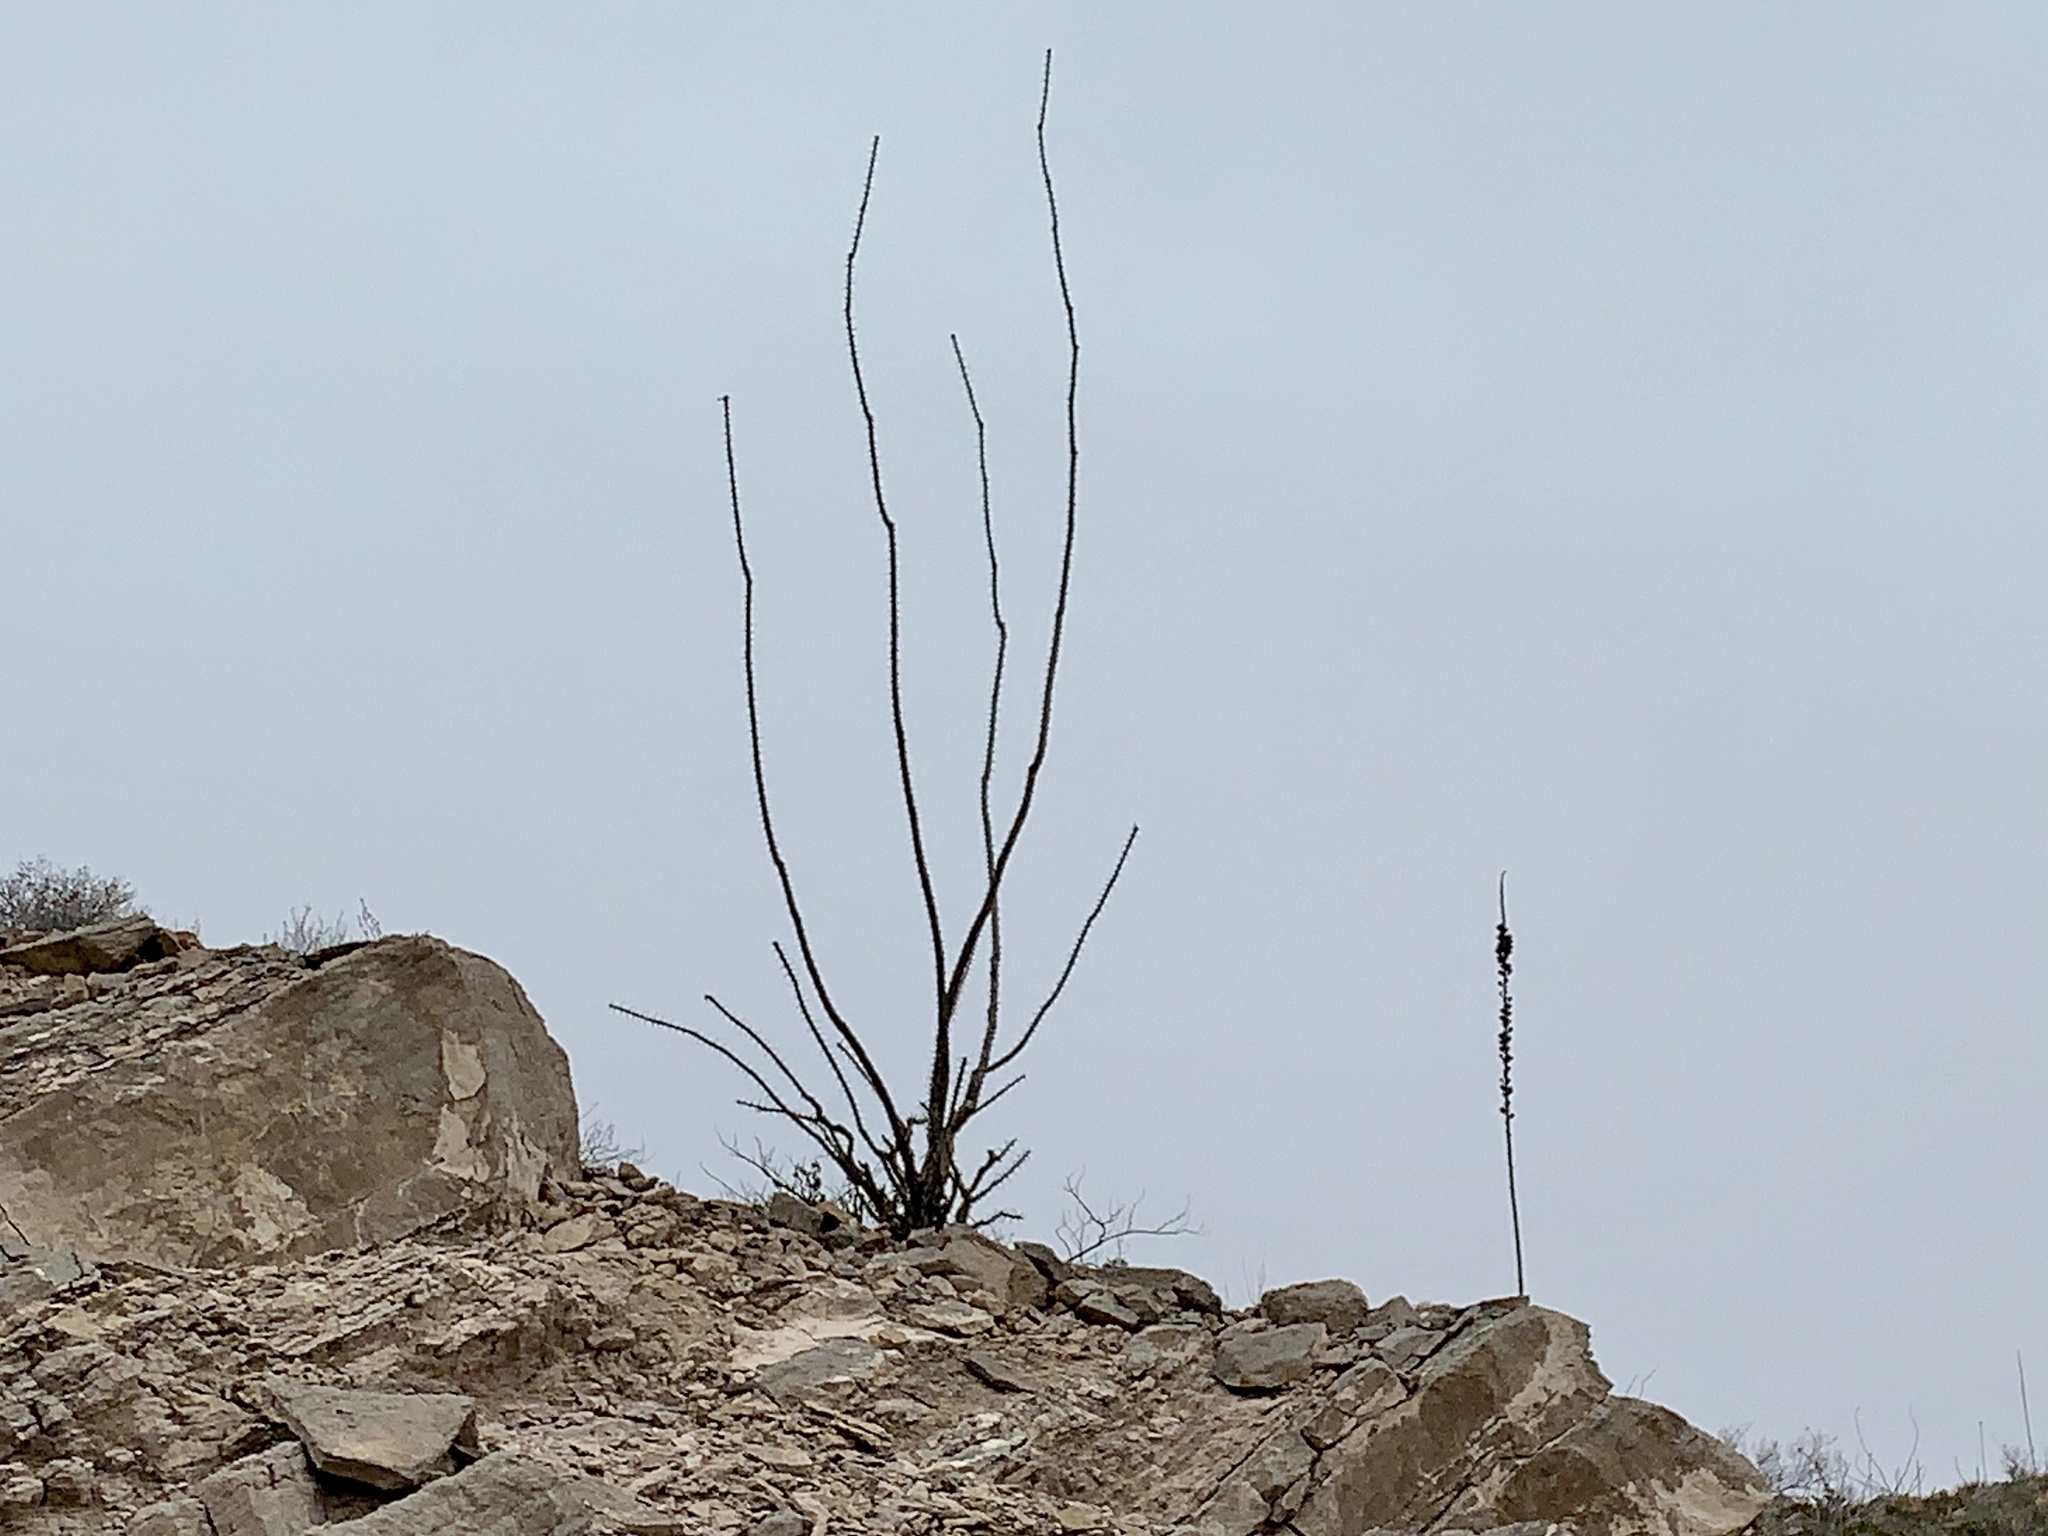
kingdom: Plantae
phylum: Tracheophyta
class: Magnoliopsida
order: Ericales
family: Fouquieriaceae
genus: Fouquieria
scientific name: Fouquieria splendens
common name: Vine-cactus
